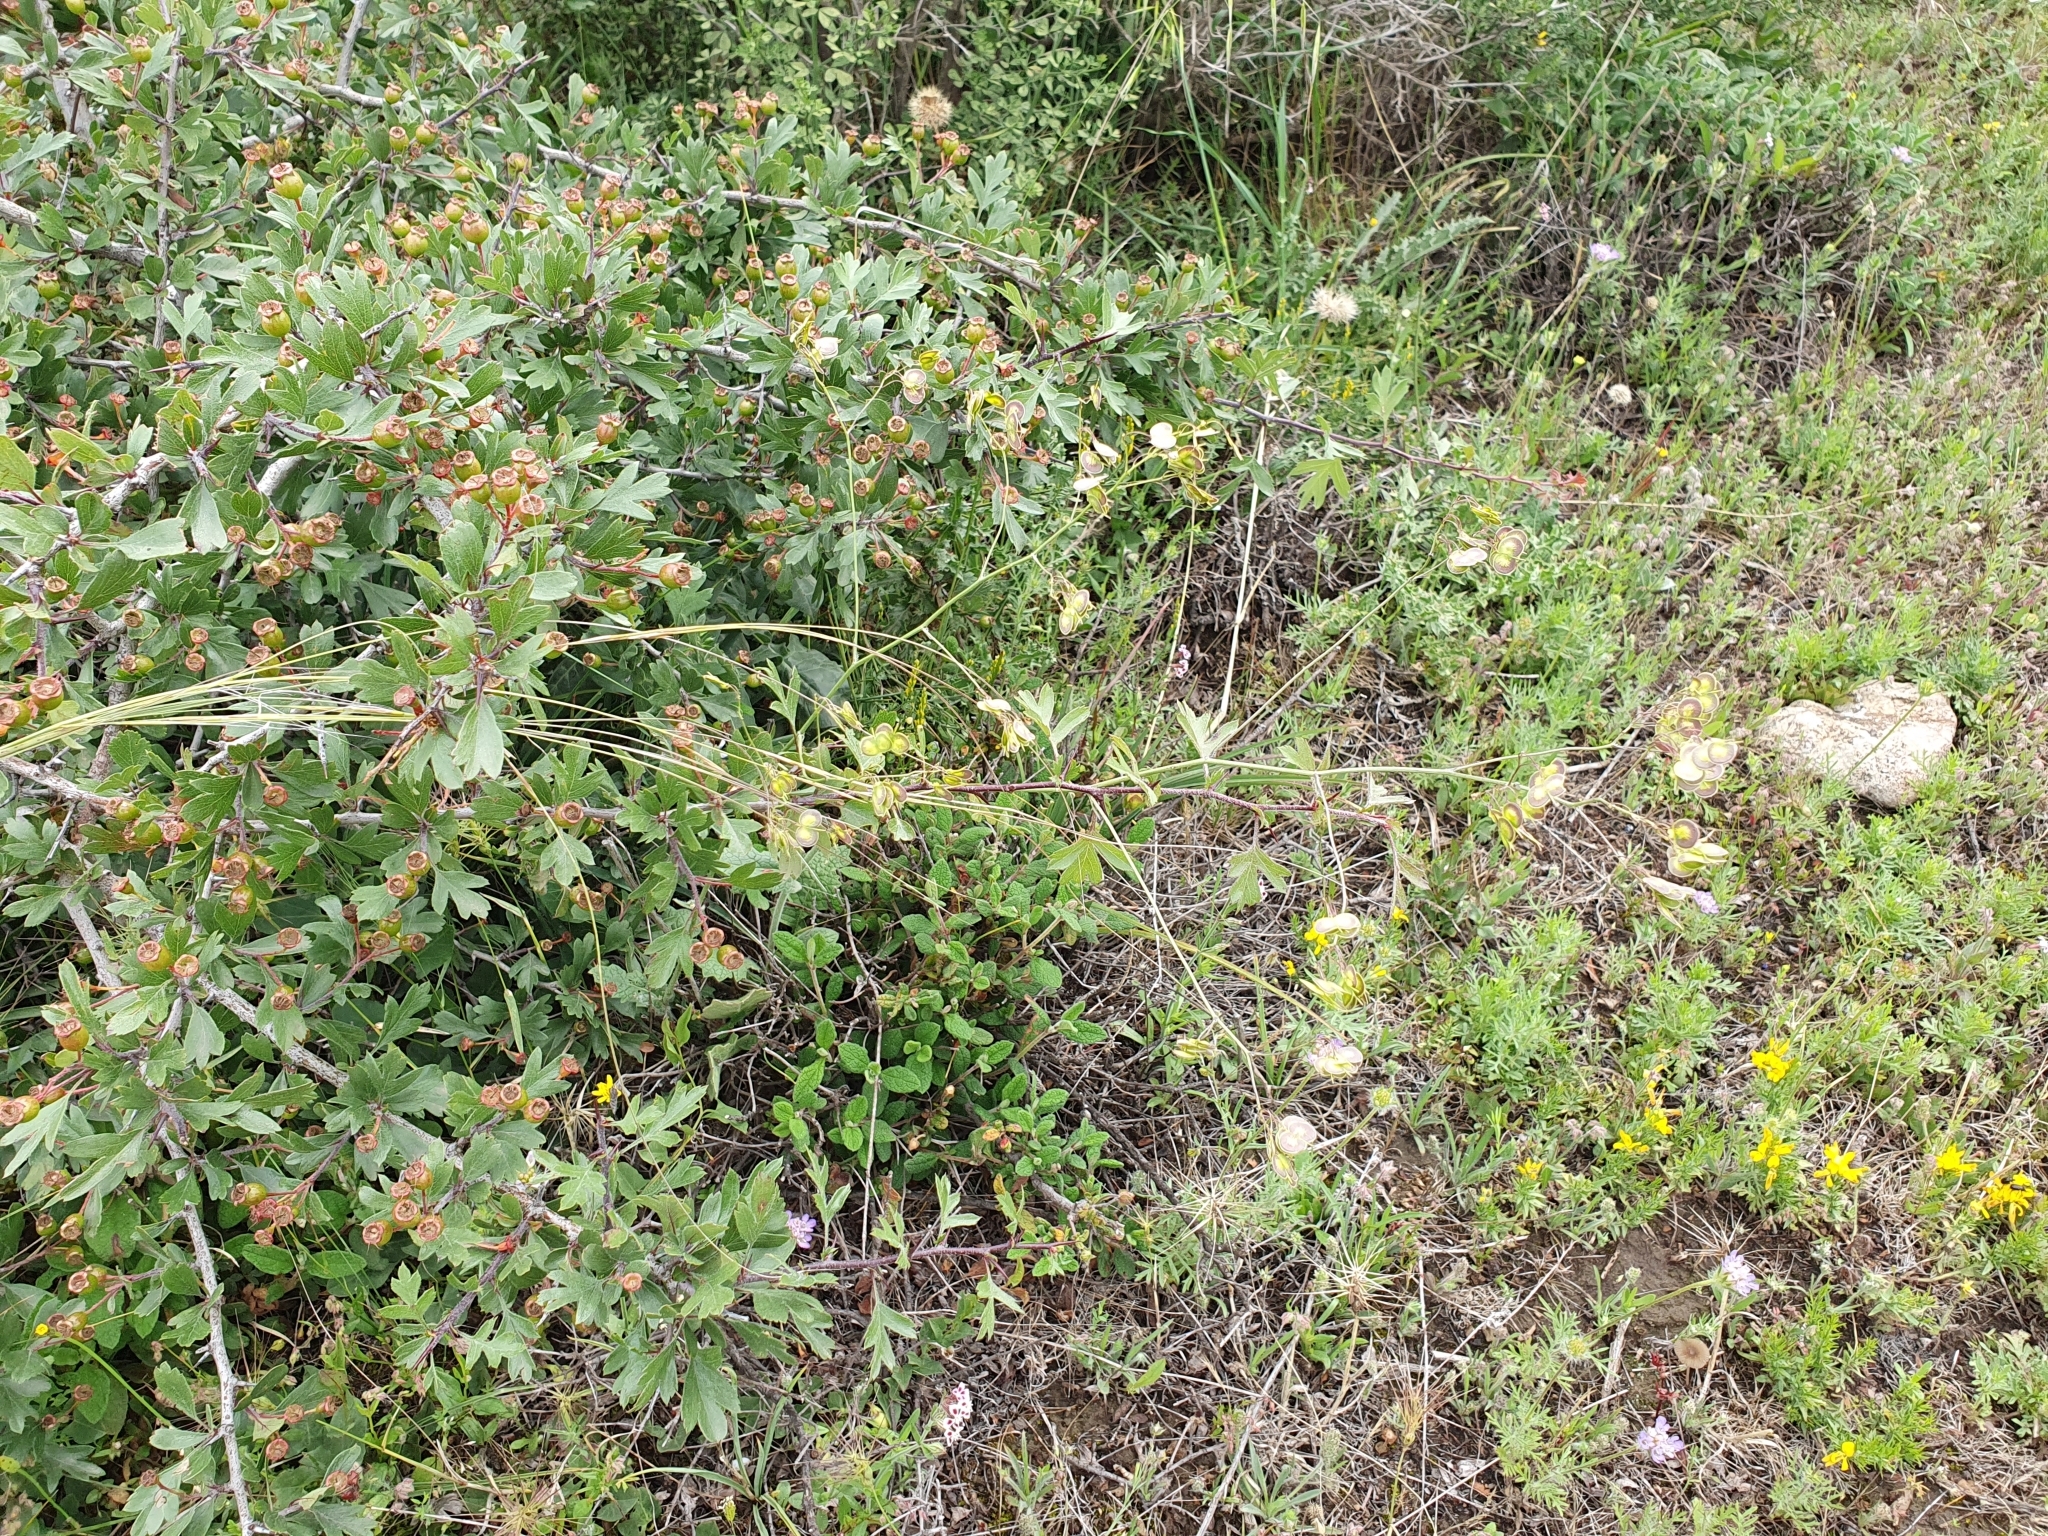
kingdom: Plantae
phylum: Tracheophyta
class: Magnoliopsida
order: Brassicales
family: Brassicaceae
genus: Biscutella
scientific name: Biscutella raphanifolia
